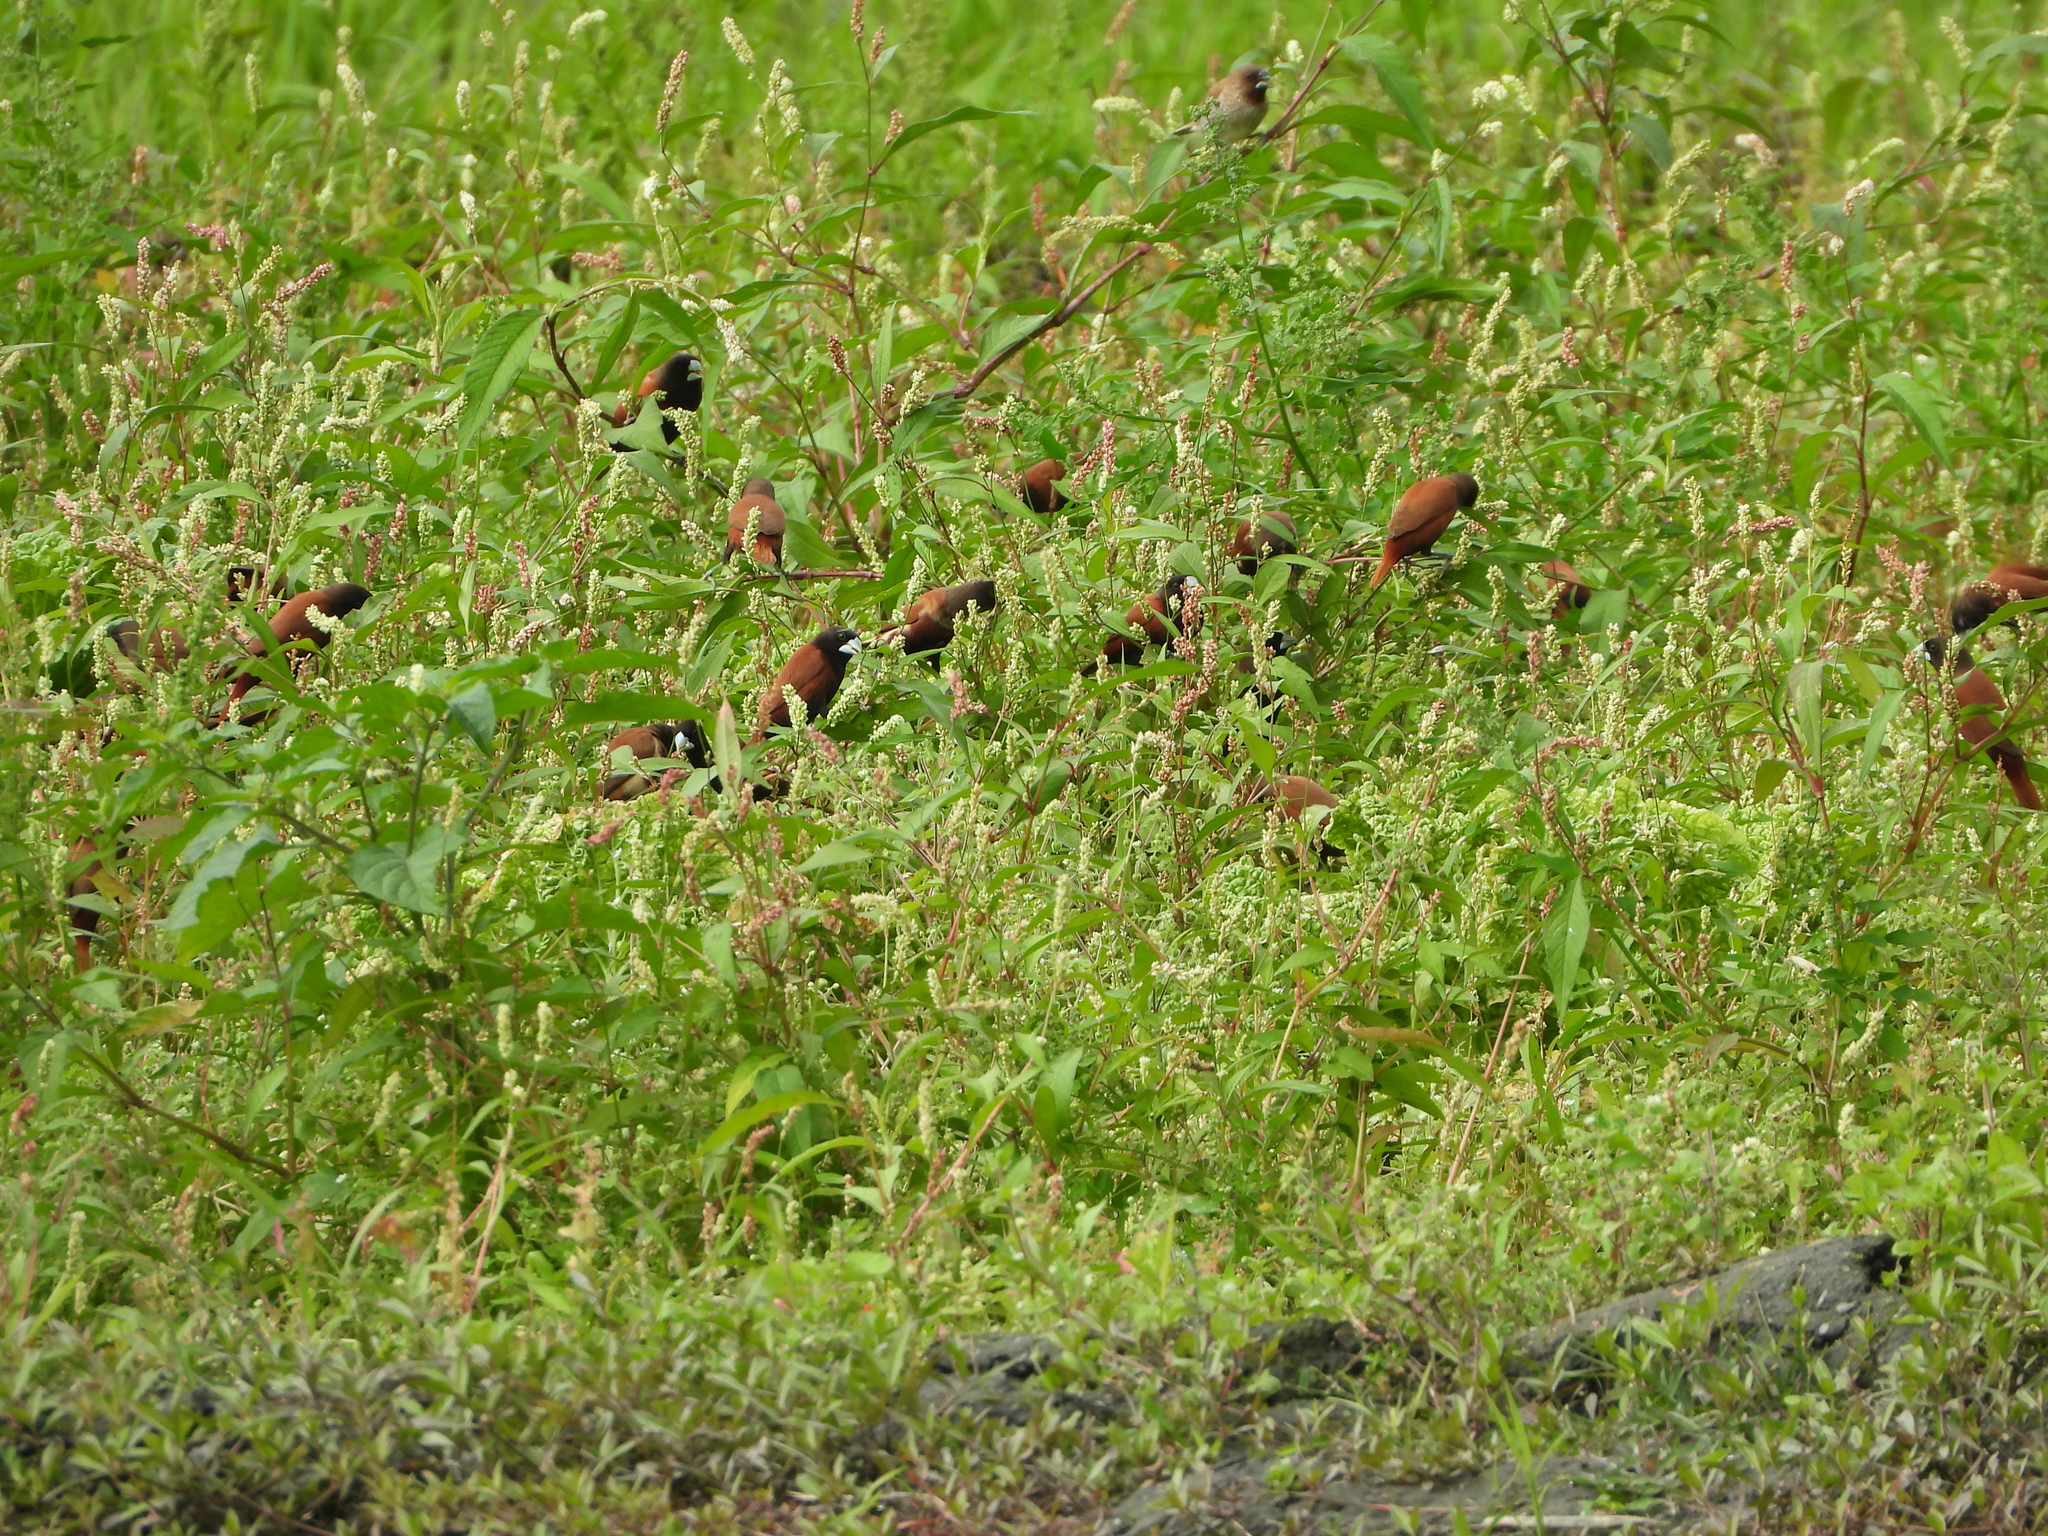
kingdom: Animalia
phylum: Chordata
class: Aves
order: Passeriformes
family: Estrildidae
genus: Lonchura
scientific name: Lonchura atricapilla
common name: Chestnut munia
